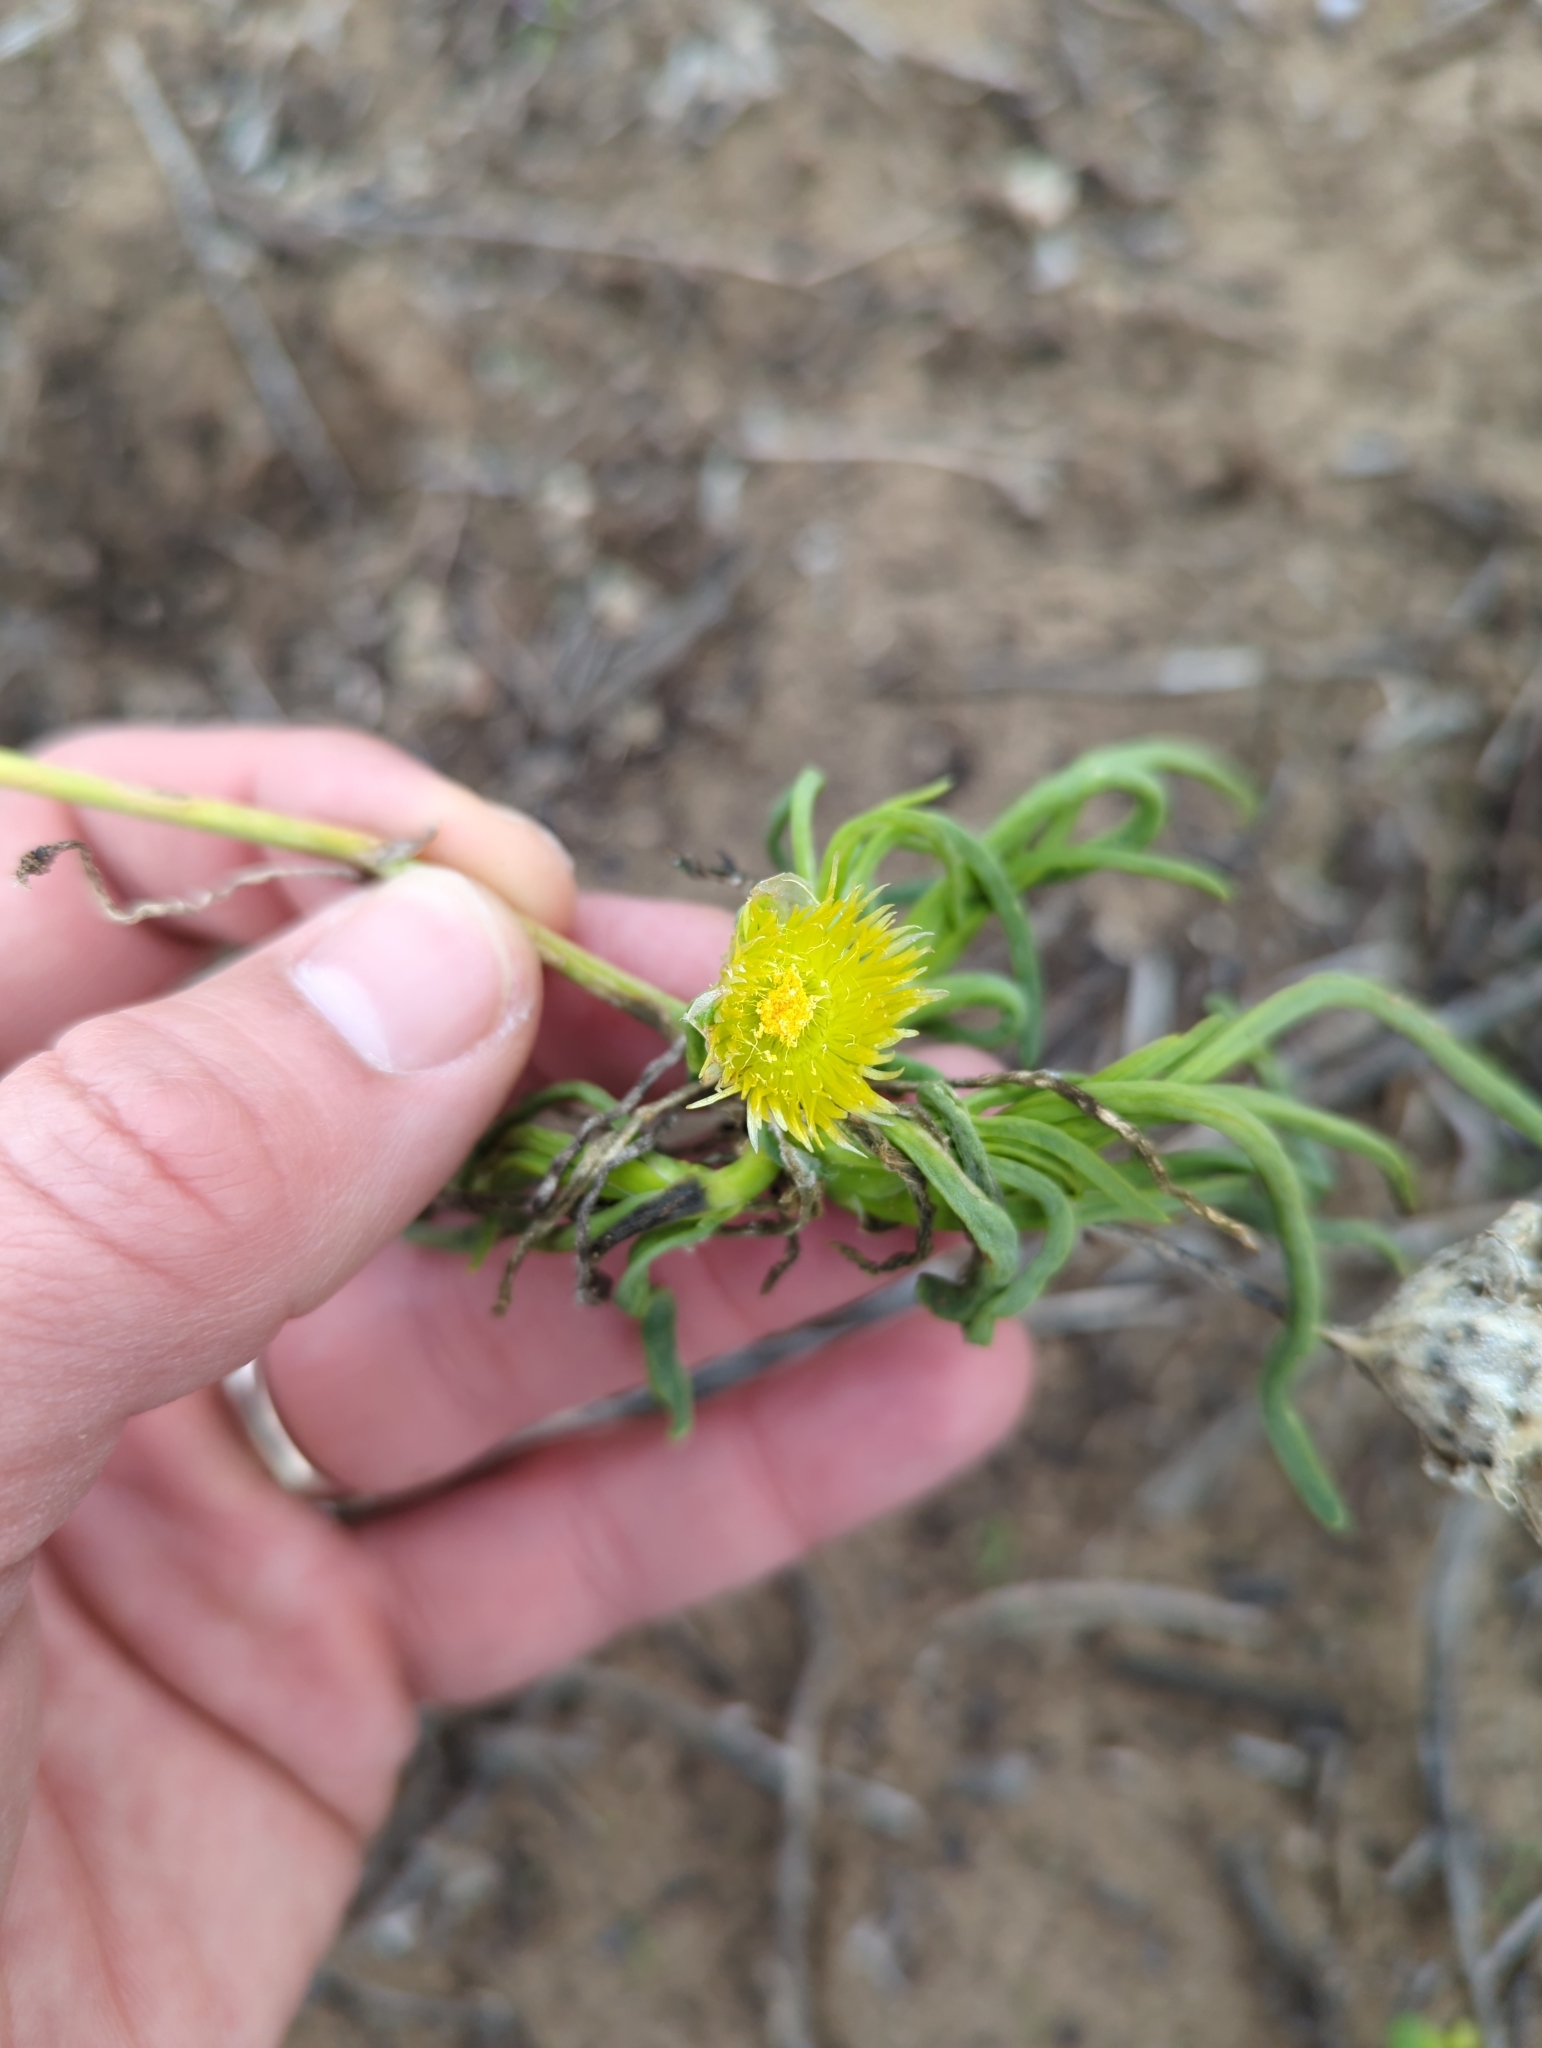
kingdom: Plantae
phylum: Tracheophyta
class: Magnoliopsida
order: Caryophyllales
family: Aizoaceae
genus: Conicosia
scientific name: Conicosia pugioniformis
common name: Narrow-leaved iceplant
